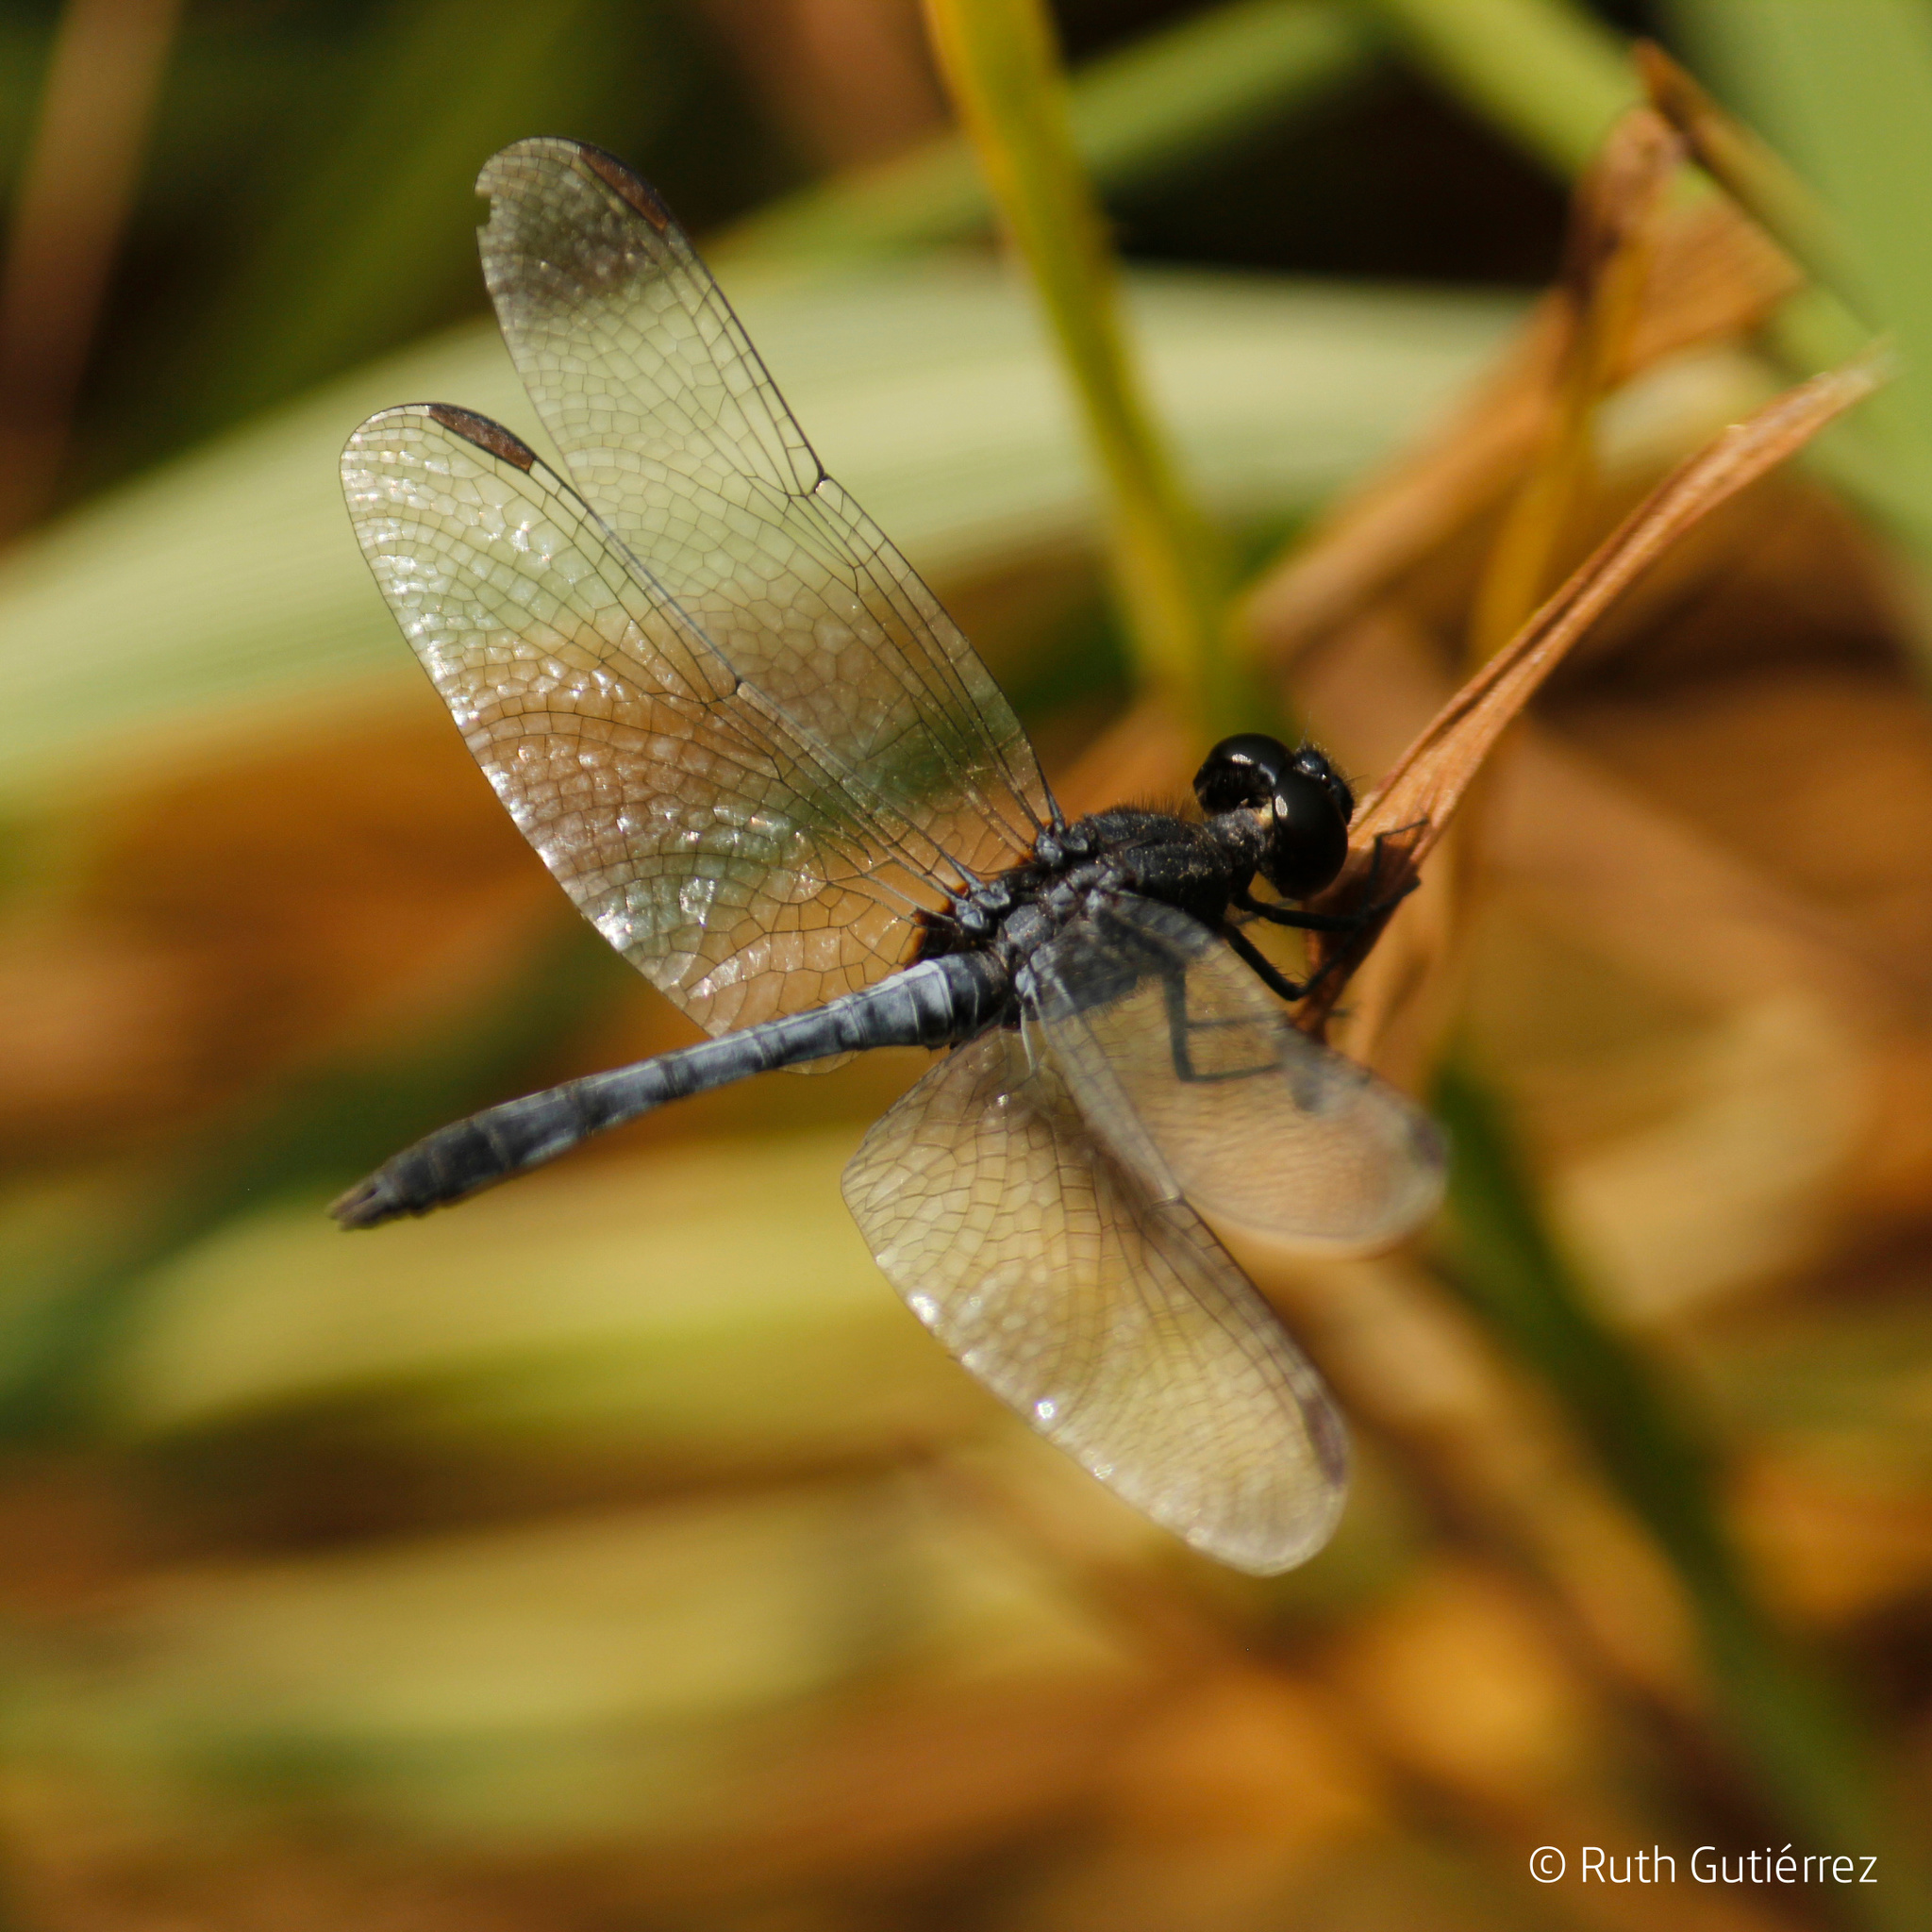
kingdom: Animalia
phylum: Arthropoda
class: Insecta
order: Odonata
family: Libellulidae
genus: Erythrodiplax
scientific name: Erythrodiplax cleopatra
